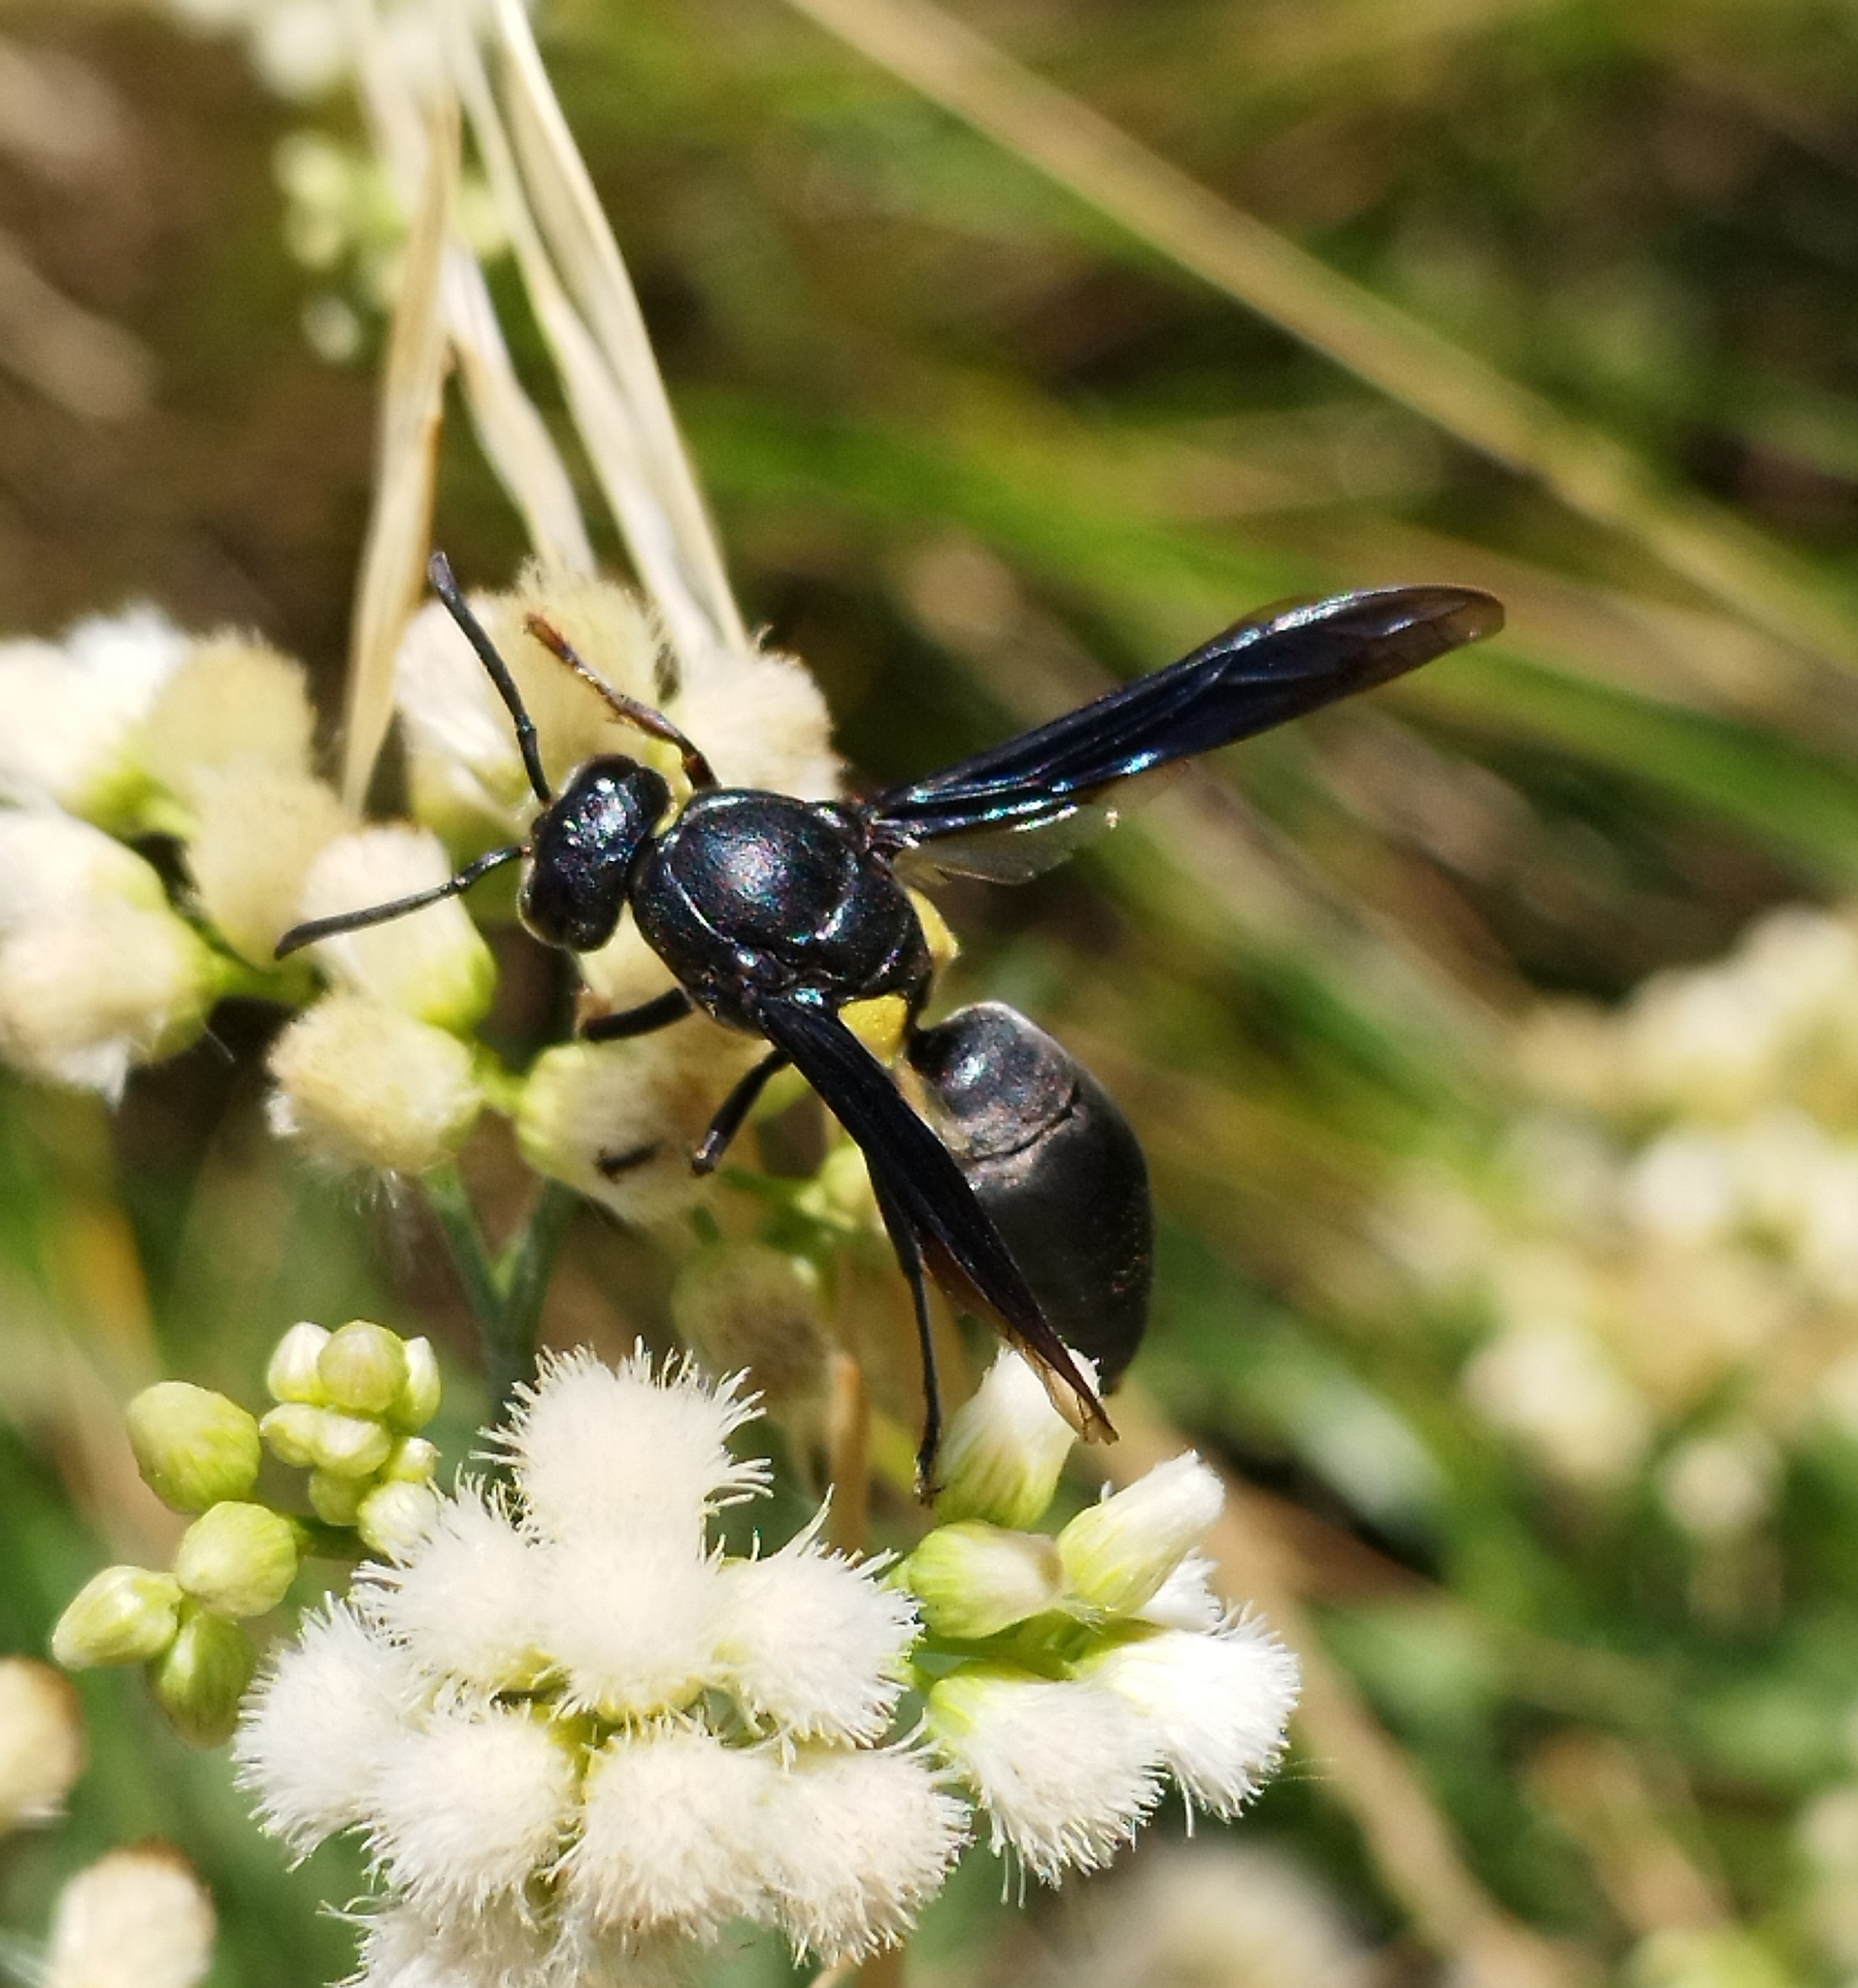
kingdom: Animalia
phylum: Arthropoda
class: Insecta
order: Hymenoptera
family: Eumenidae
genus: Monobia
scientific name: Monobia angulosa
